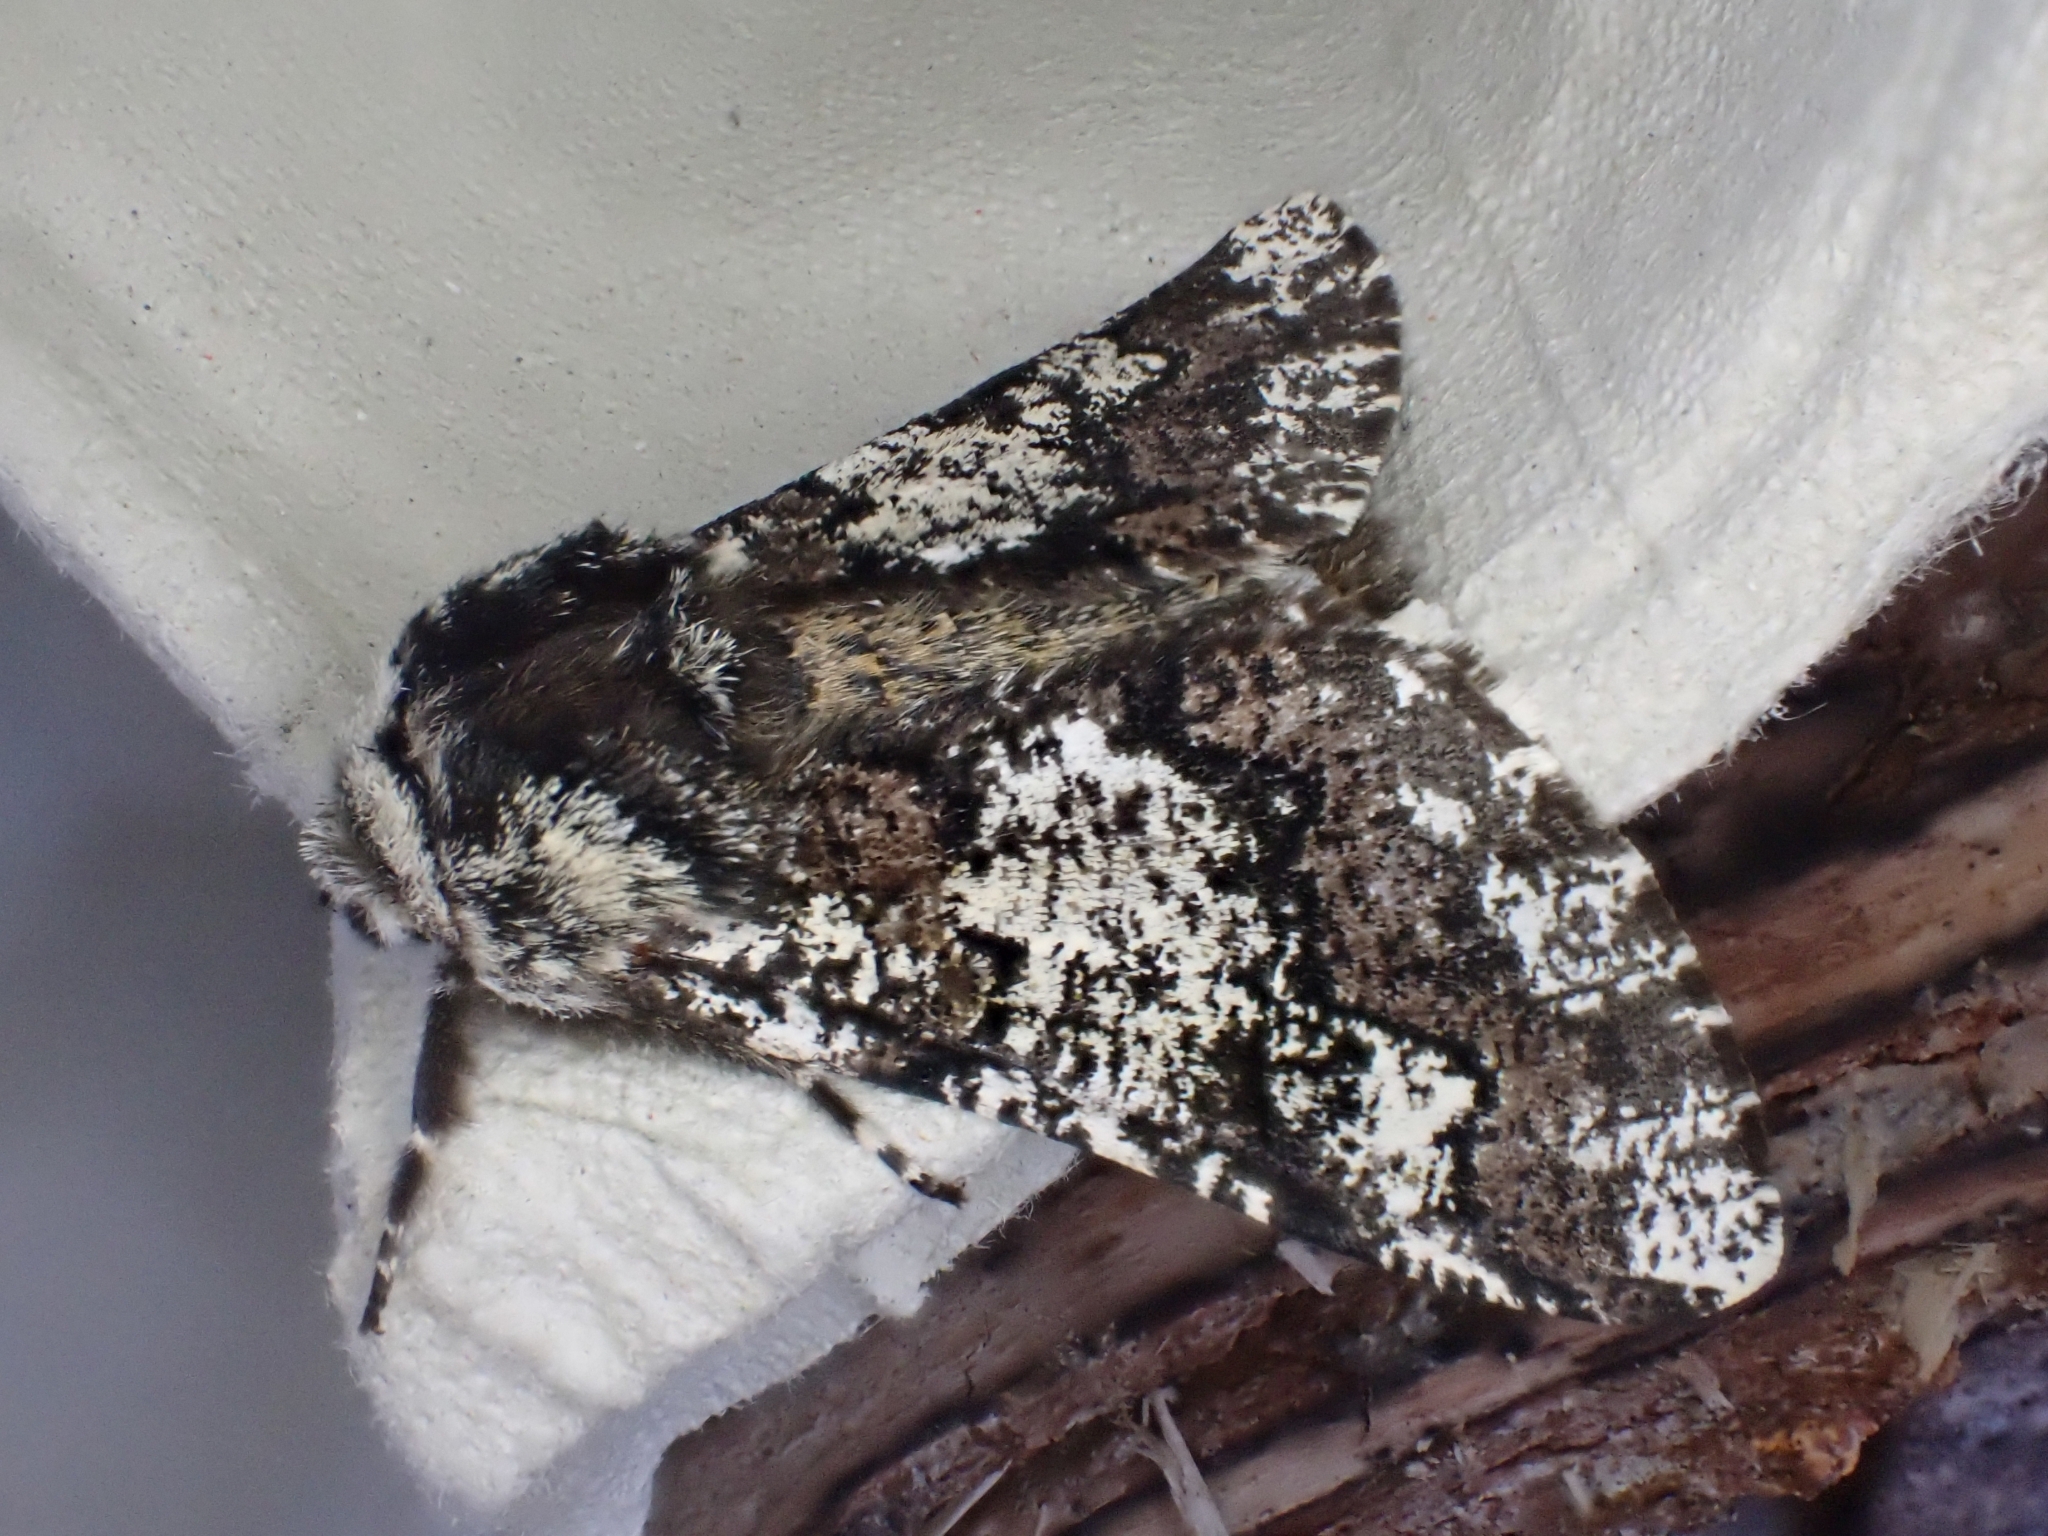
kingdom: Animalia
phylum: Arthropoda
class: Insecta
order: Lepidoptera
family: Geometridae
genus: Biston
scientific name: Biston strataria
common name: Oak beauty
